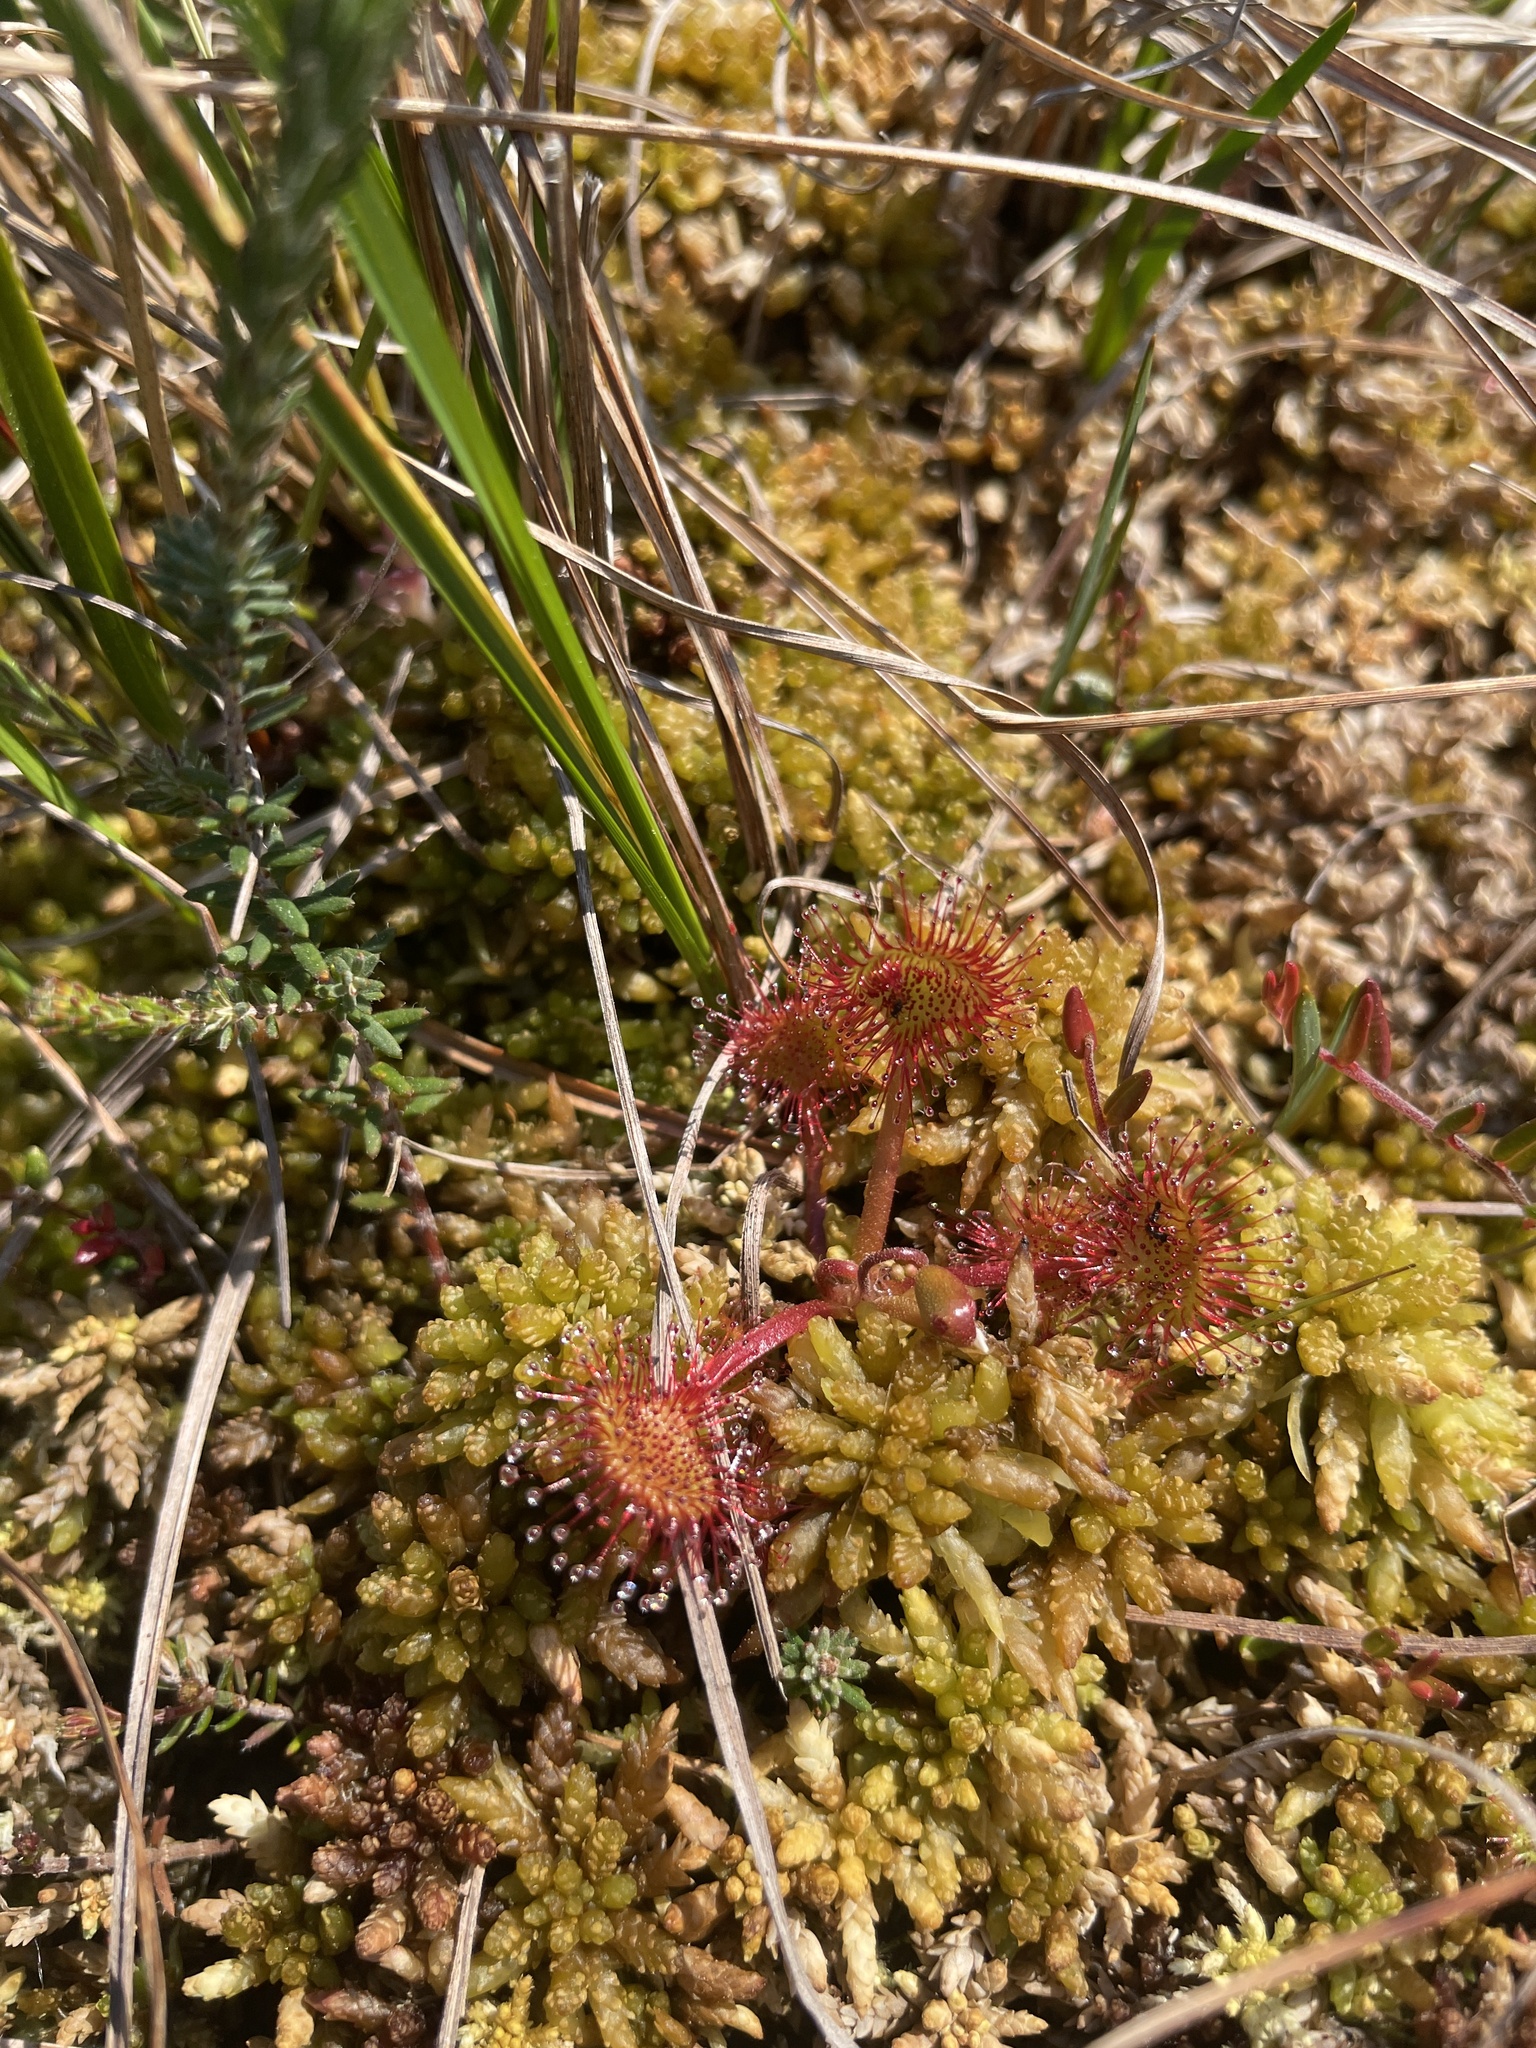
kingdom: Plantae
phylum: Tracheophyta
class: Magnoliopsida
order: Caryophyllales
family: Droseraceae
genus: Drosera
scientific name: Drosera rotundifolia
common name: Round-leaved sundew
